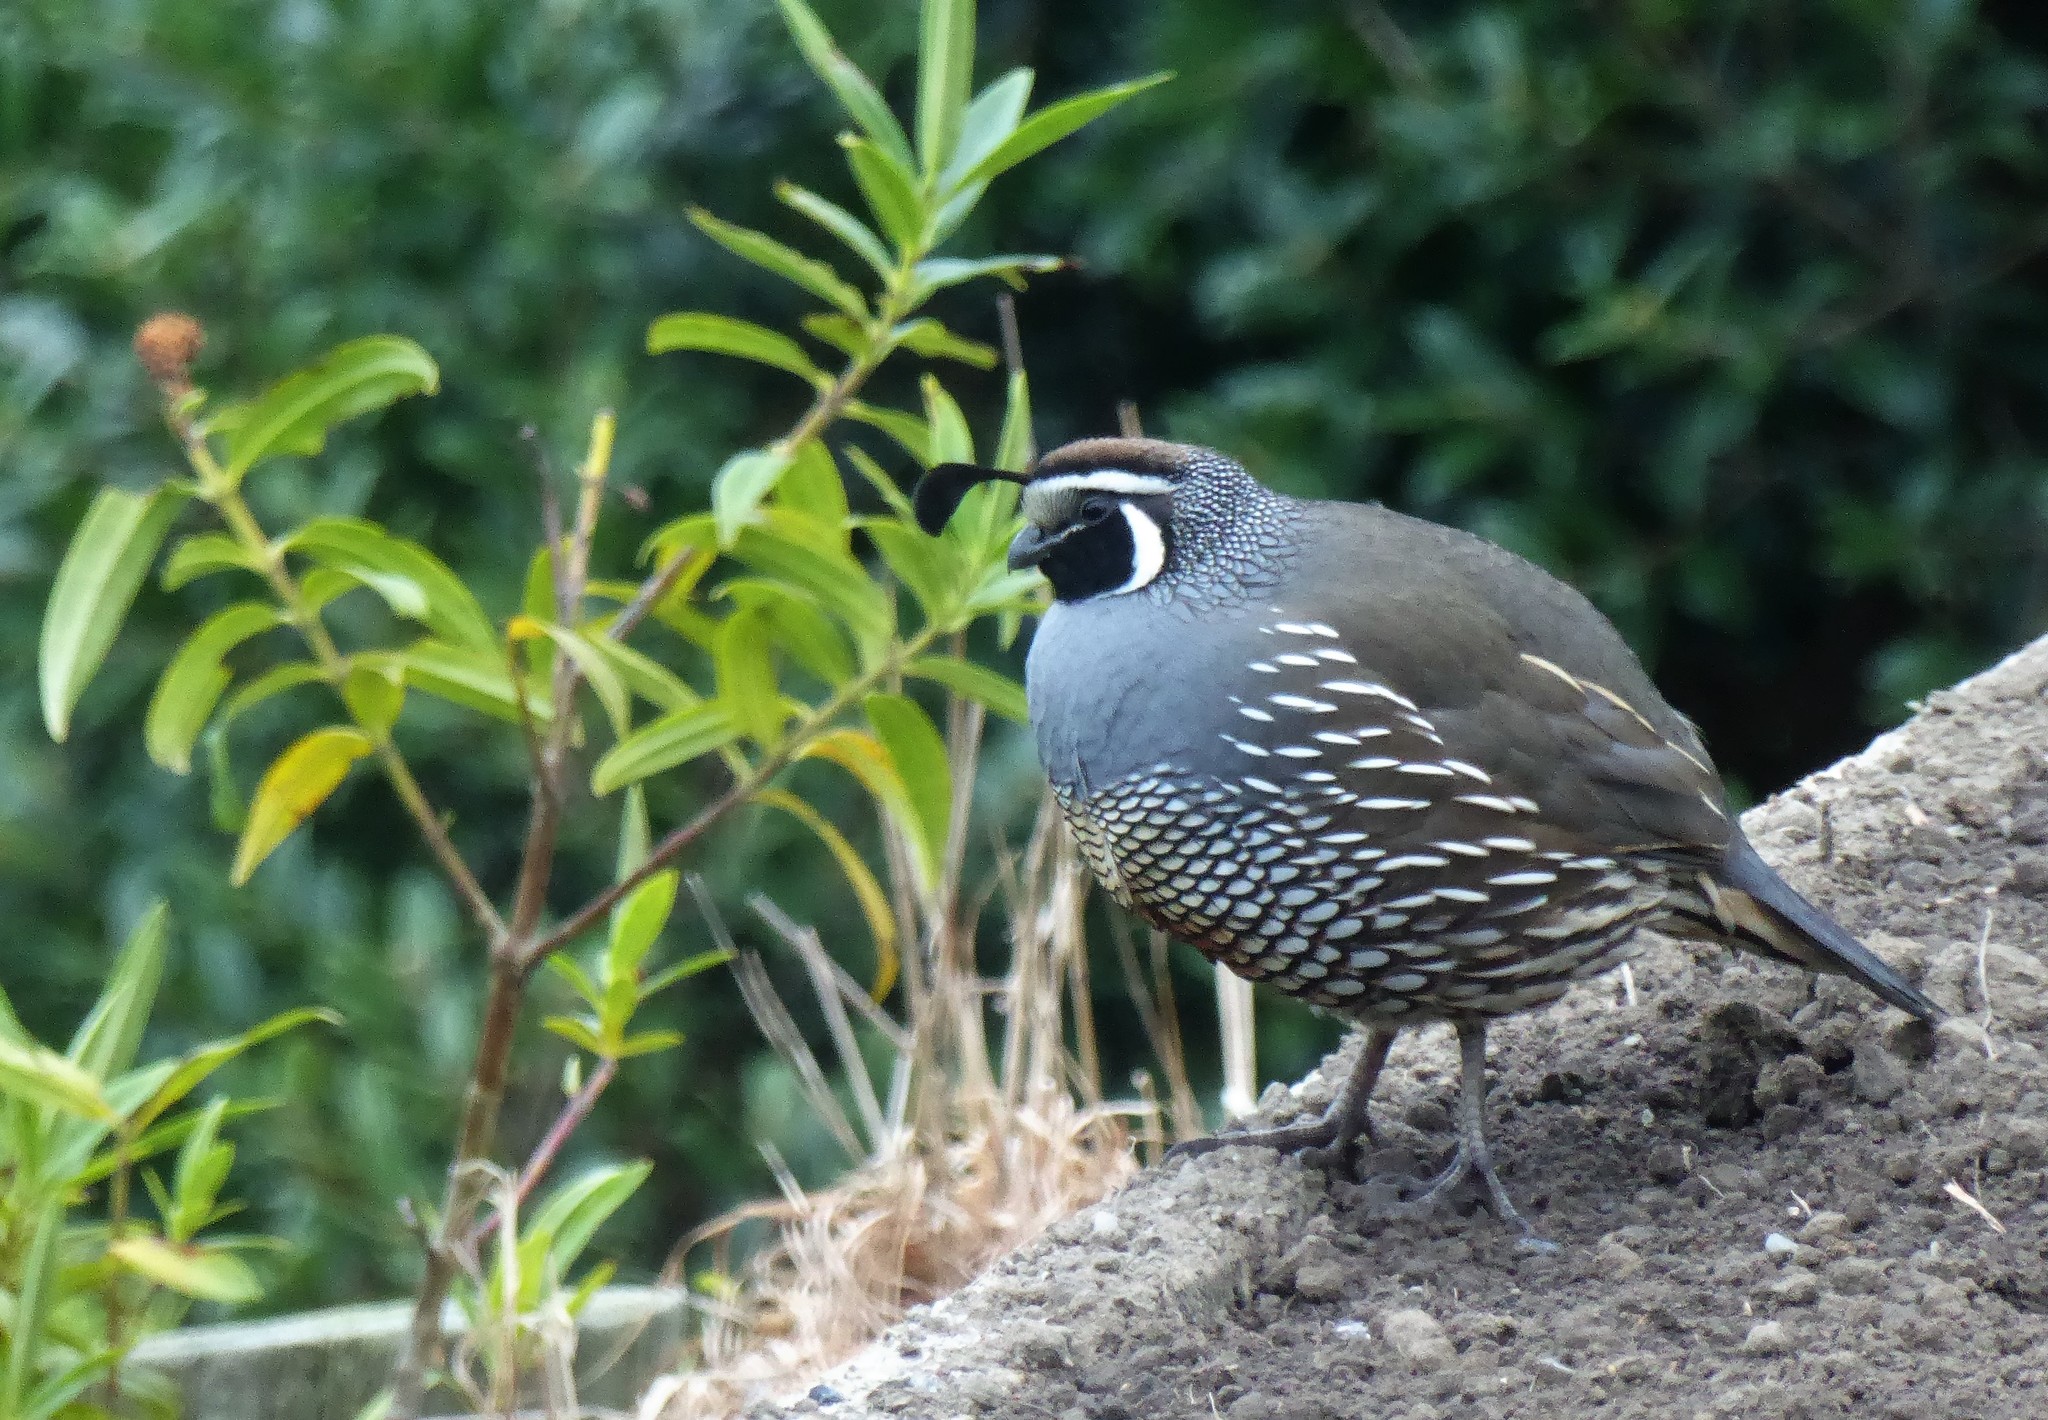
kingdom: Animalia
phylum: Chordata
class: Aves
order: Galliformes
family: Odontophoridae
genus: Callipepla
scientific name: Callipepla californica
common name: California quail
